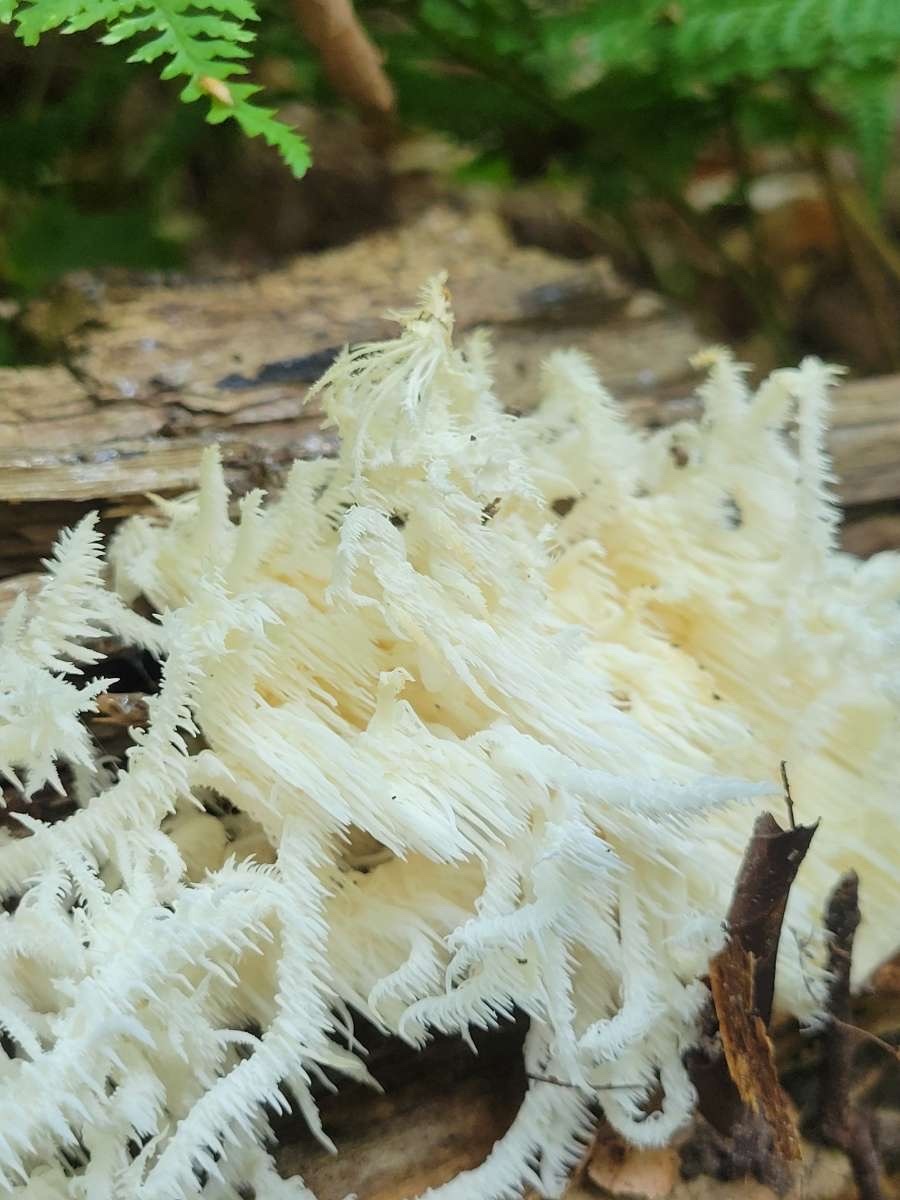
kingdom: Fungi
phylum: Basidiomycota
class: Agaricomycetes
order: Russulales
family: Hericiaceae
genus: Hericium
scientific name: Hericium coralloides
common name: Coral tooth
